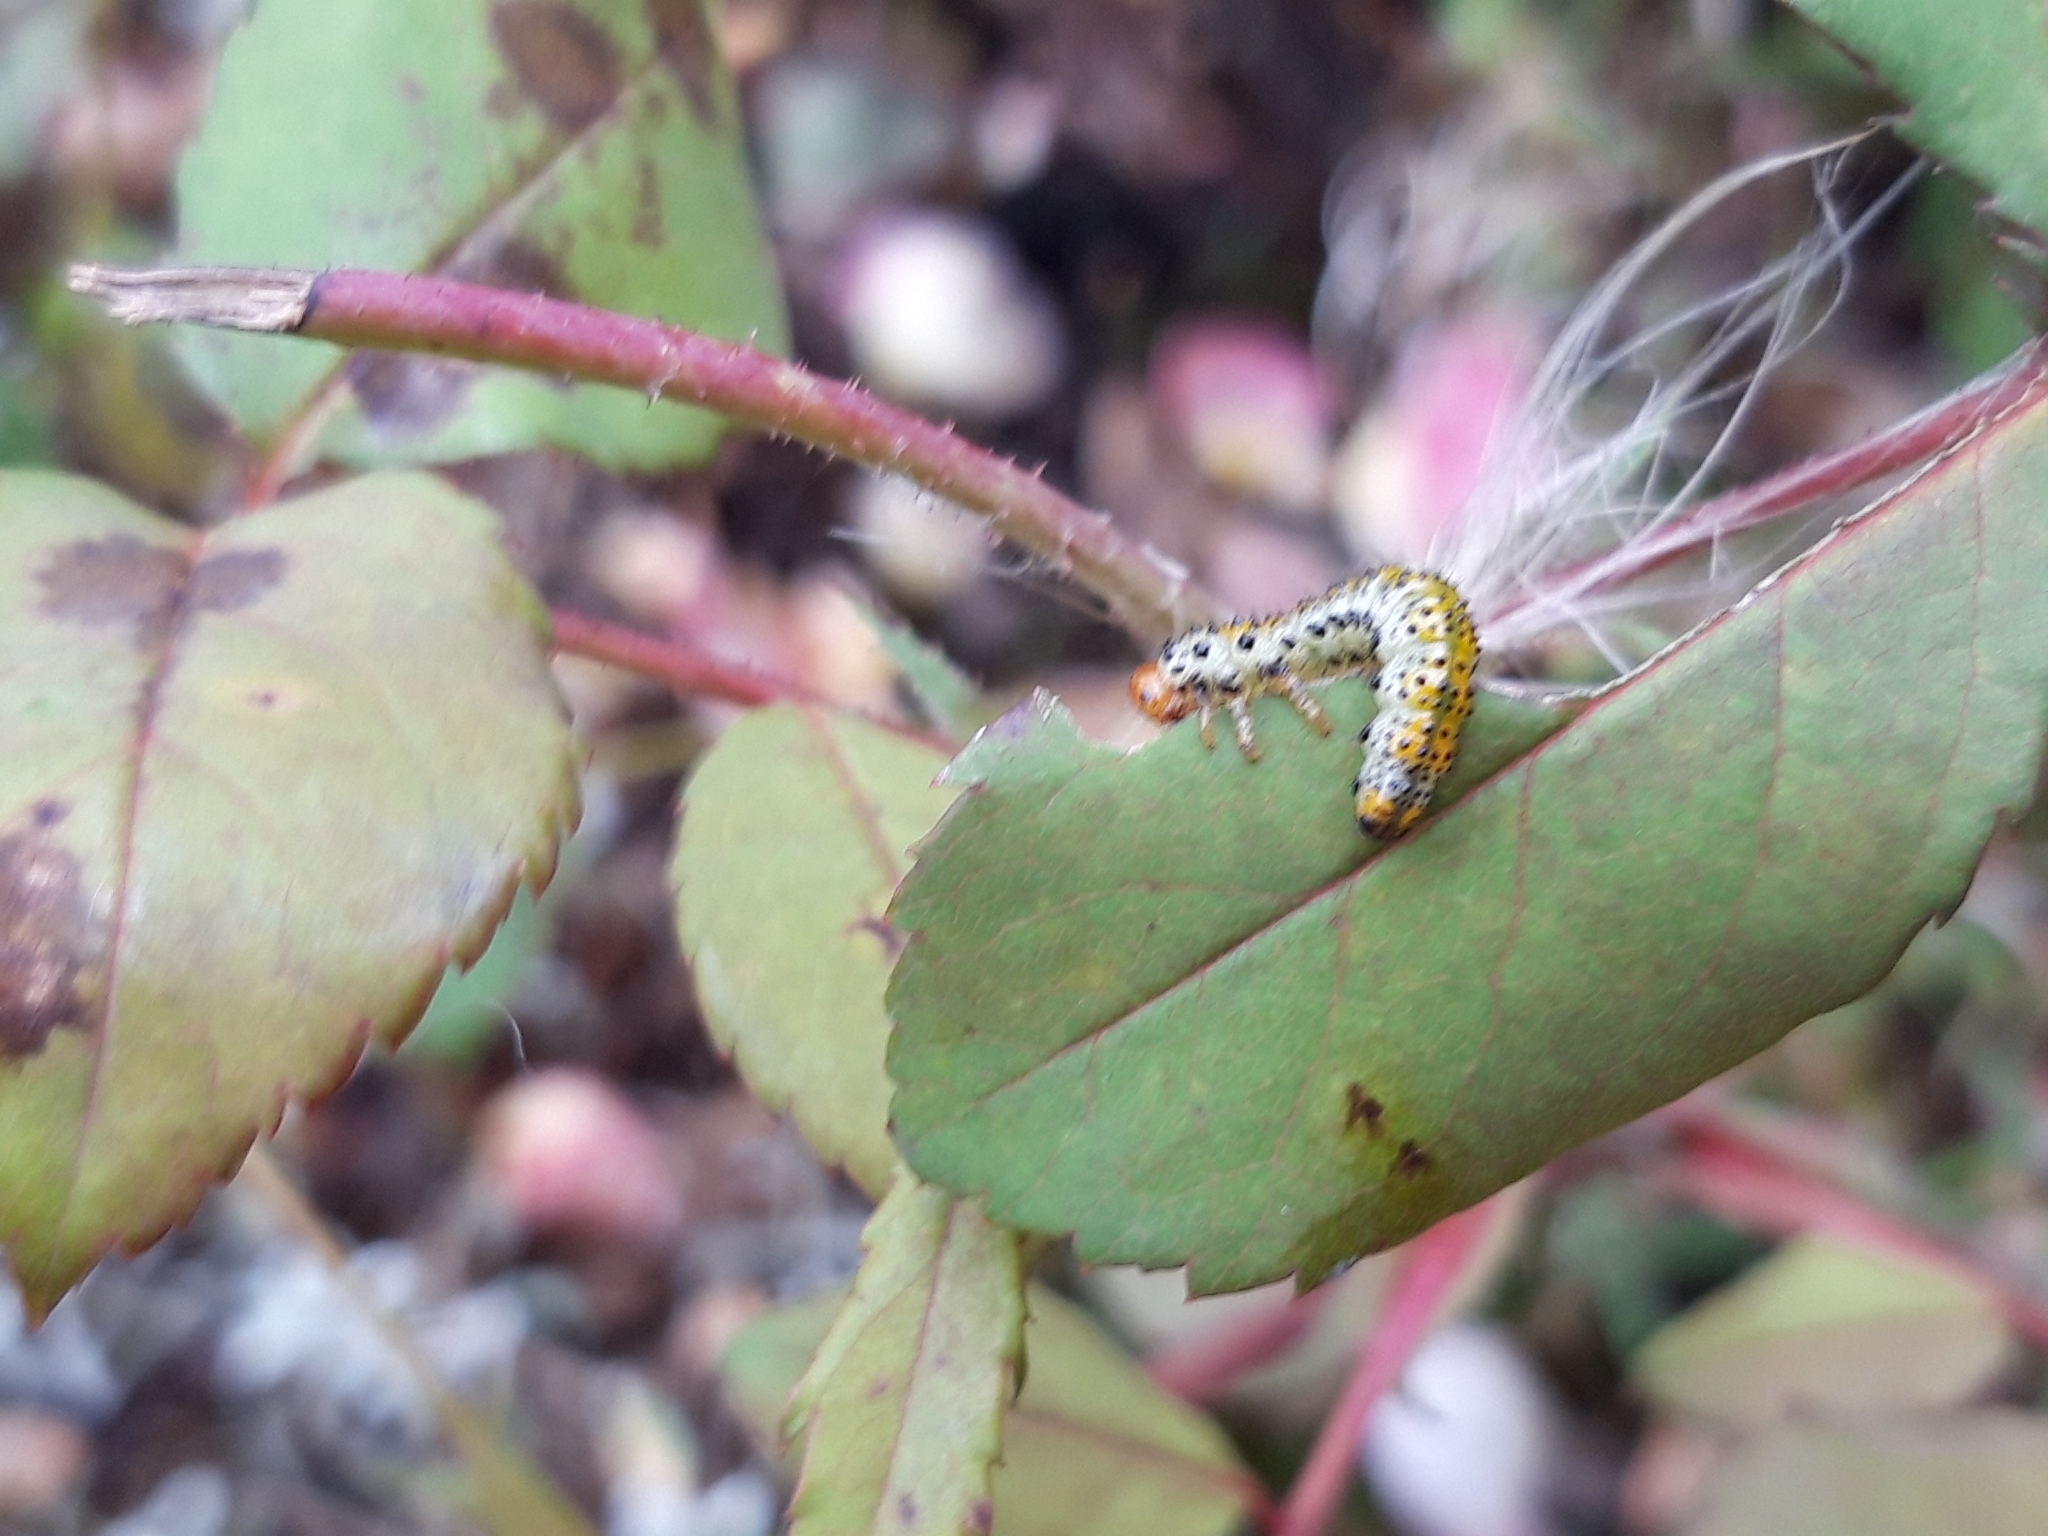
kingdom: Animalia
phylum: Arthropoda
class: Insecta
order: Hymenoptera
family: Argidae
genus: Arge
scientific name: Arge ochropus
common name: Argid sawfly
